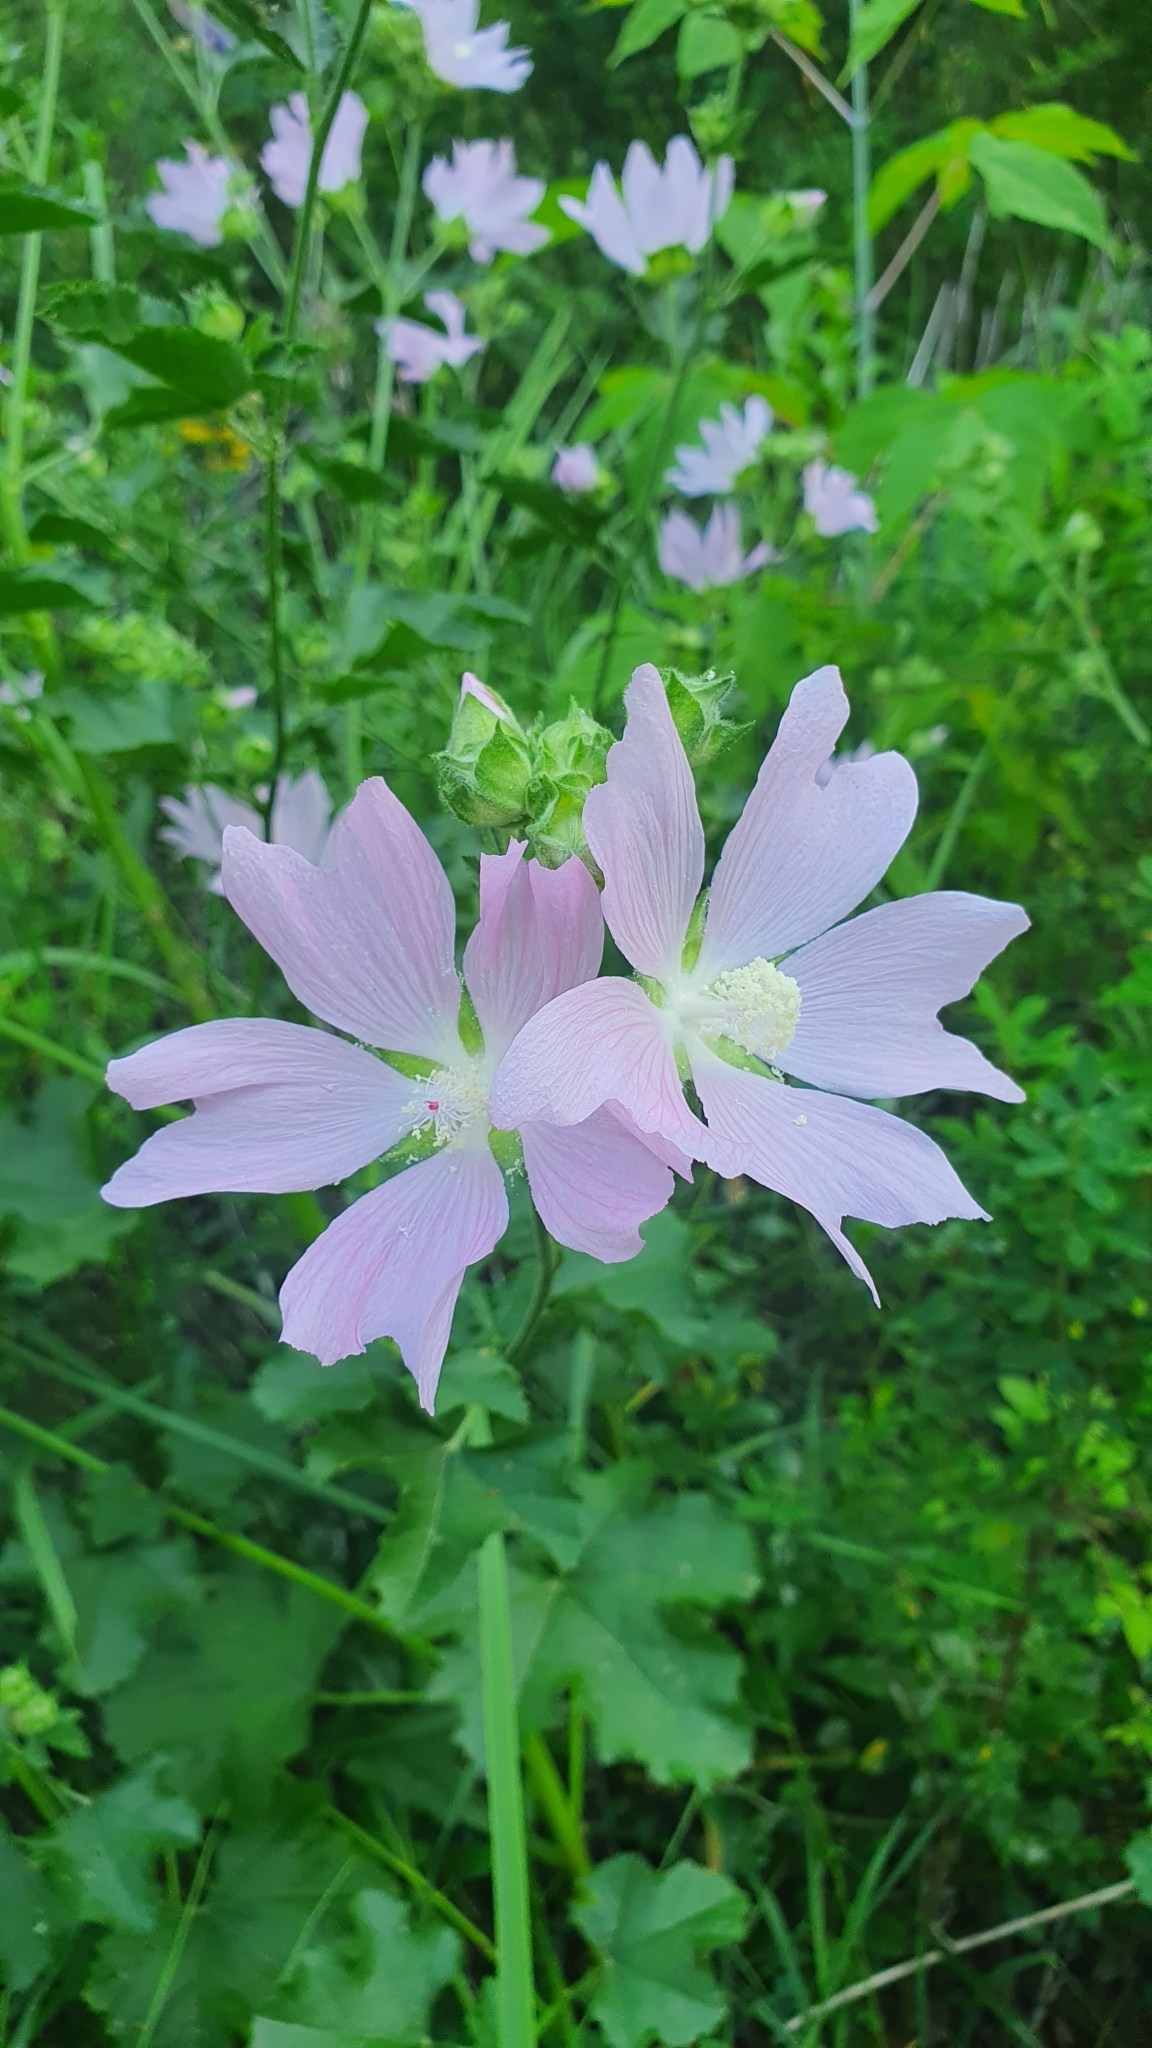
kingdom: Plantae
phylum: Tracheophyta
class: Magnoliopsida
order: Malvales
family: Malvaceae
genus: Malva
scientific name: Malva thuringiaca
